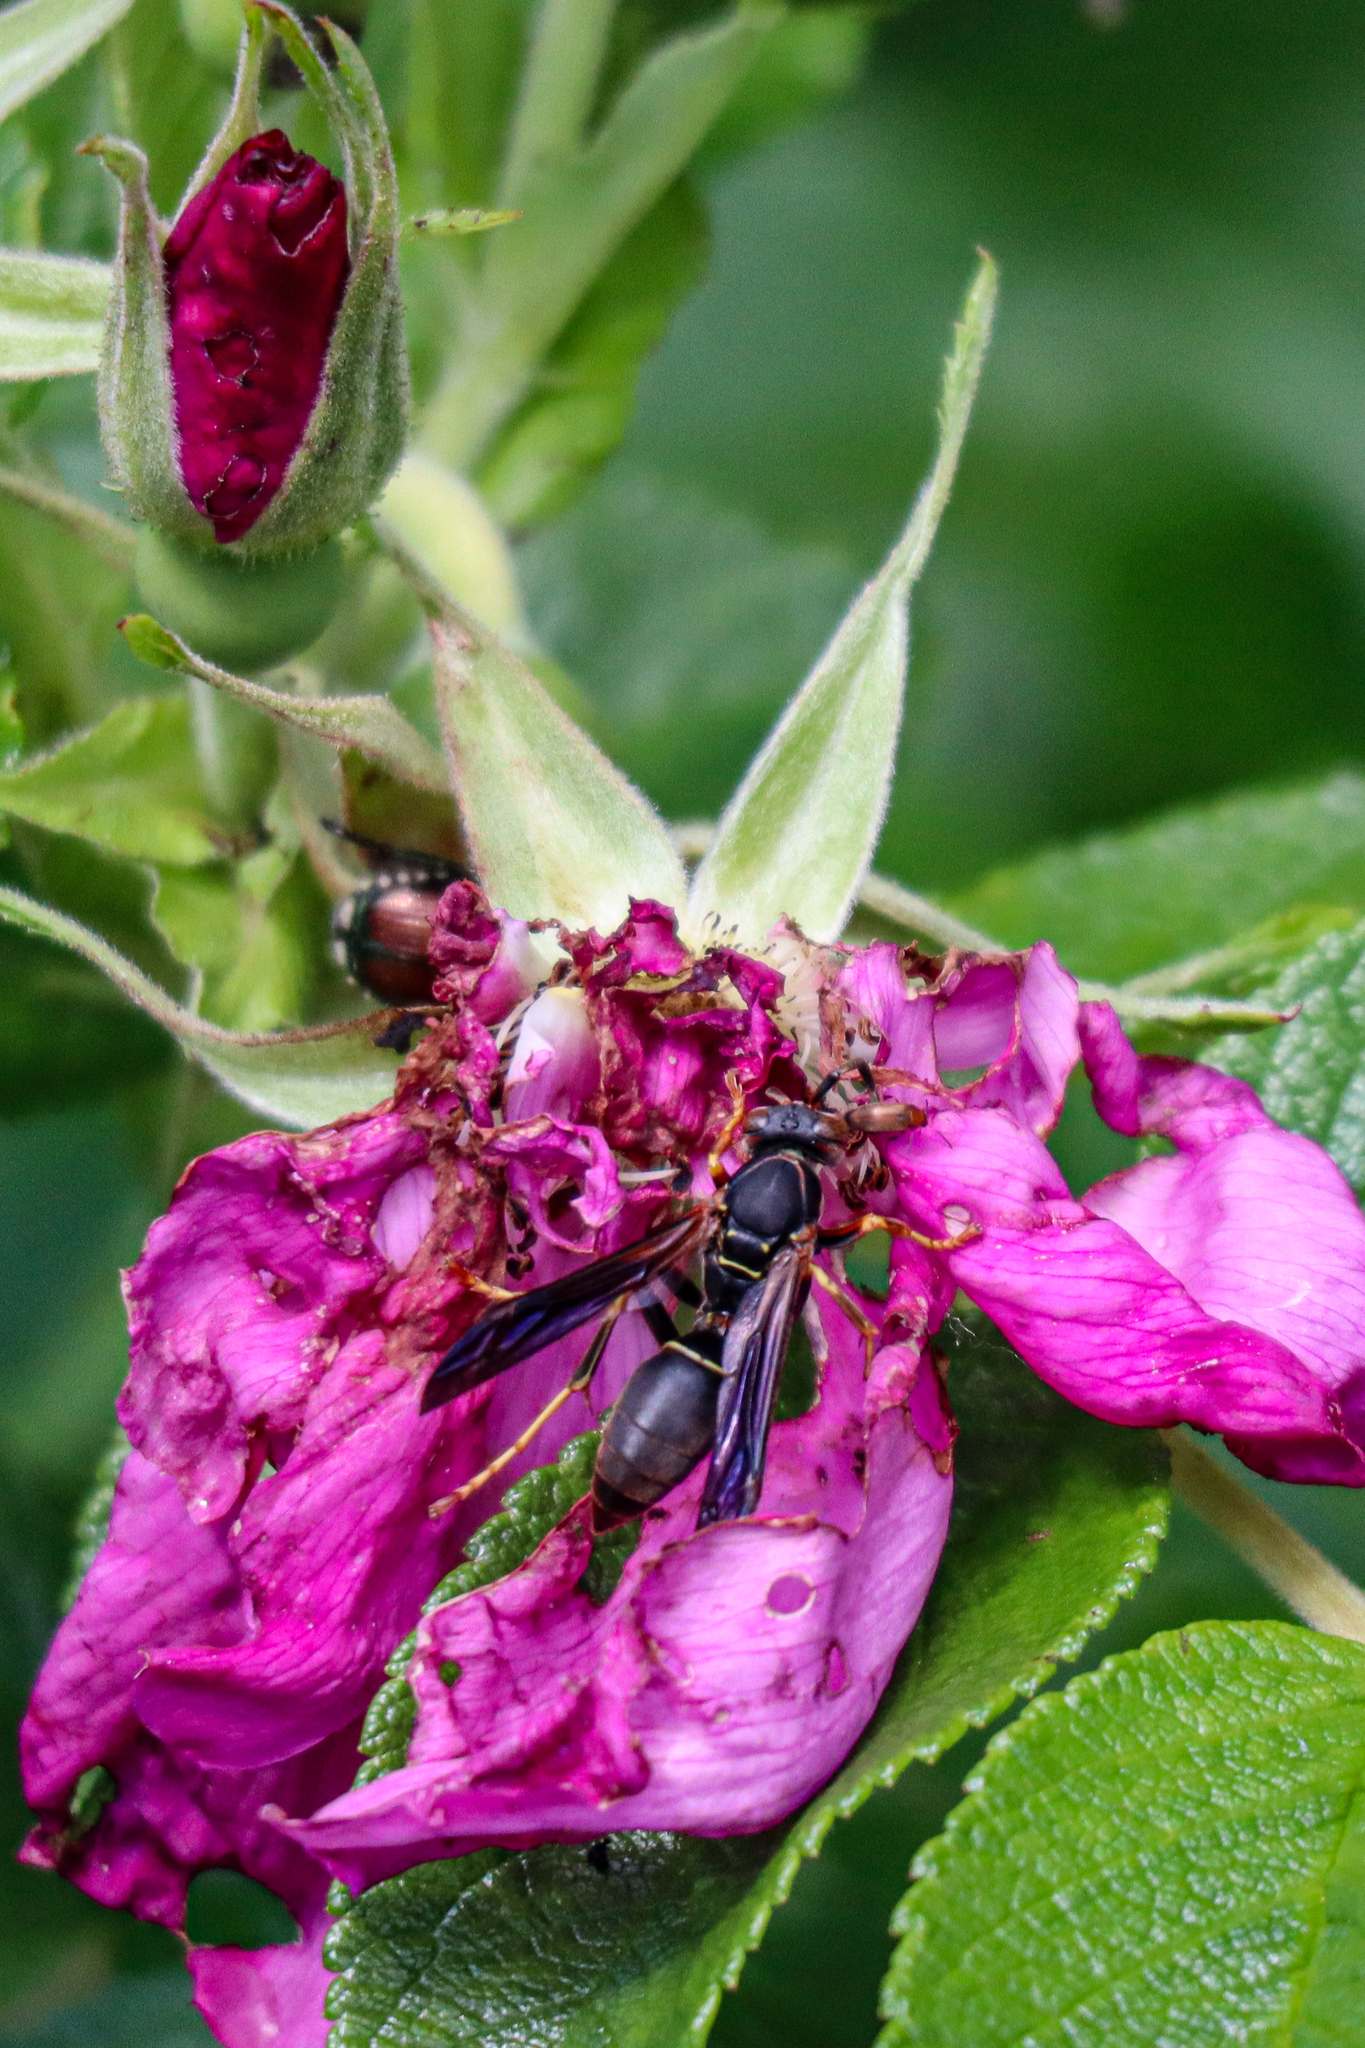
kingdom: Animalia
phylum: Arthropoda
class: Insecta
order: Hymenoptera
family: Eumenidae
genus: Polistes
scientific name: Polistes fuscatus
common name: Dark paper wasp
